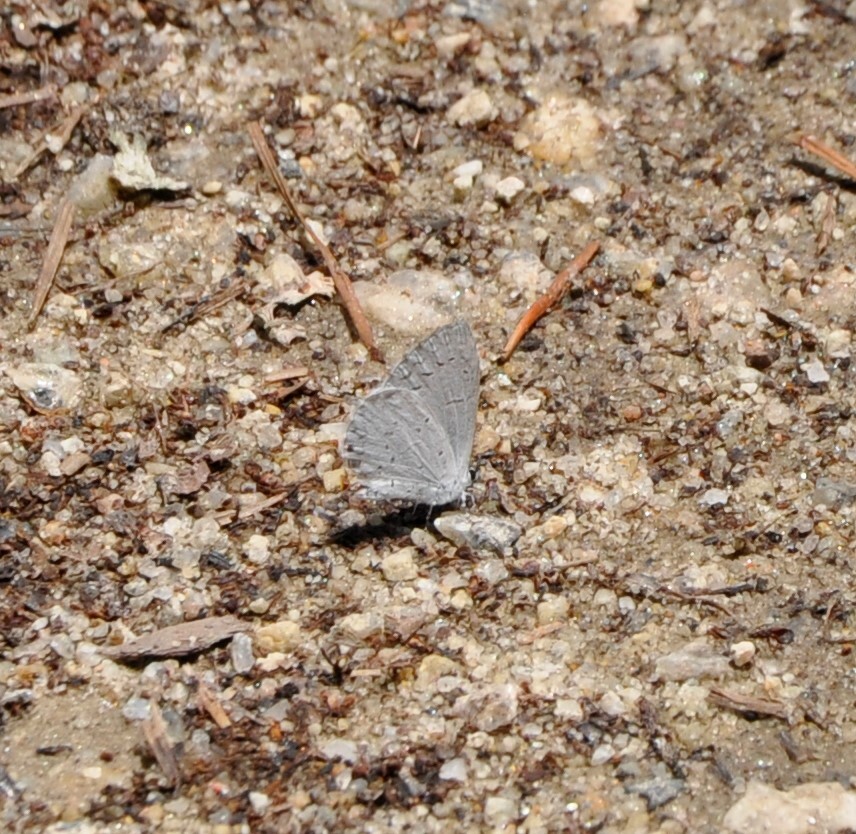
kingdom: Animalia
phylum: Arthropoda
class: Insecta
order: Lepidoptera
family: Lycaenidae
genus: Cyaniris
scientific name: Cyaniris neglecta
